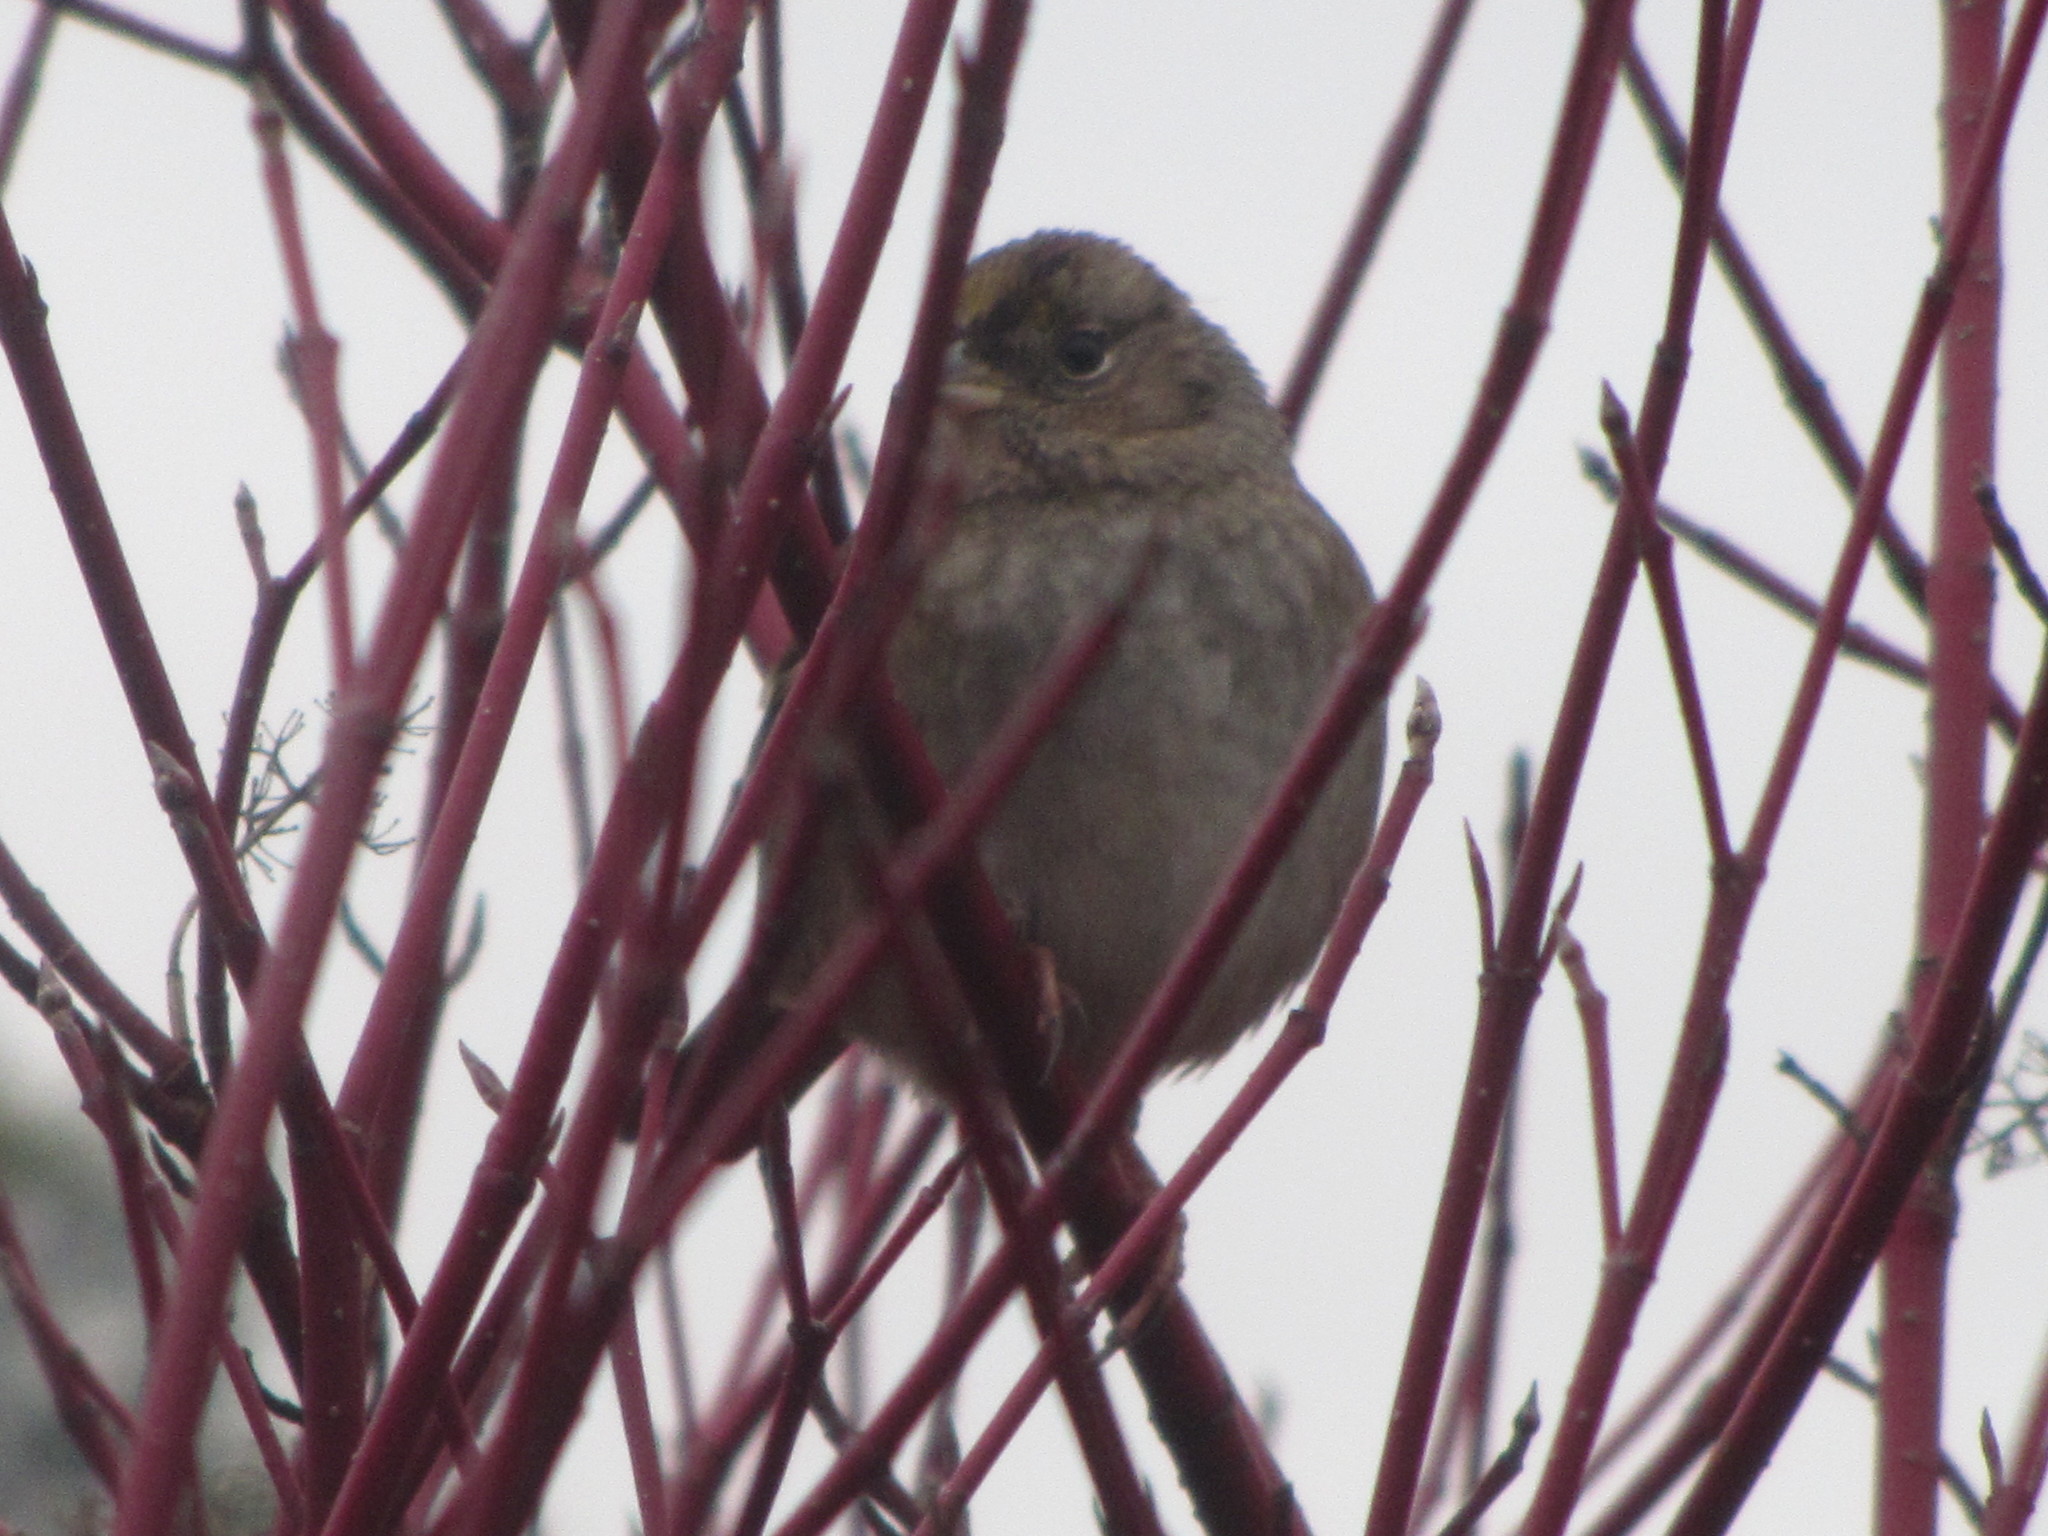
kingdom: Animalia
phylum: Chordata
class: Aves
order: Passeriformes
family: Passerellidae
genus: Zonotrichia
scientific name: Zonotrichia atricapilla
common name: Golden-crowned sparrow
